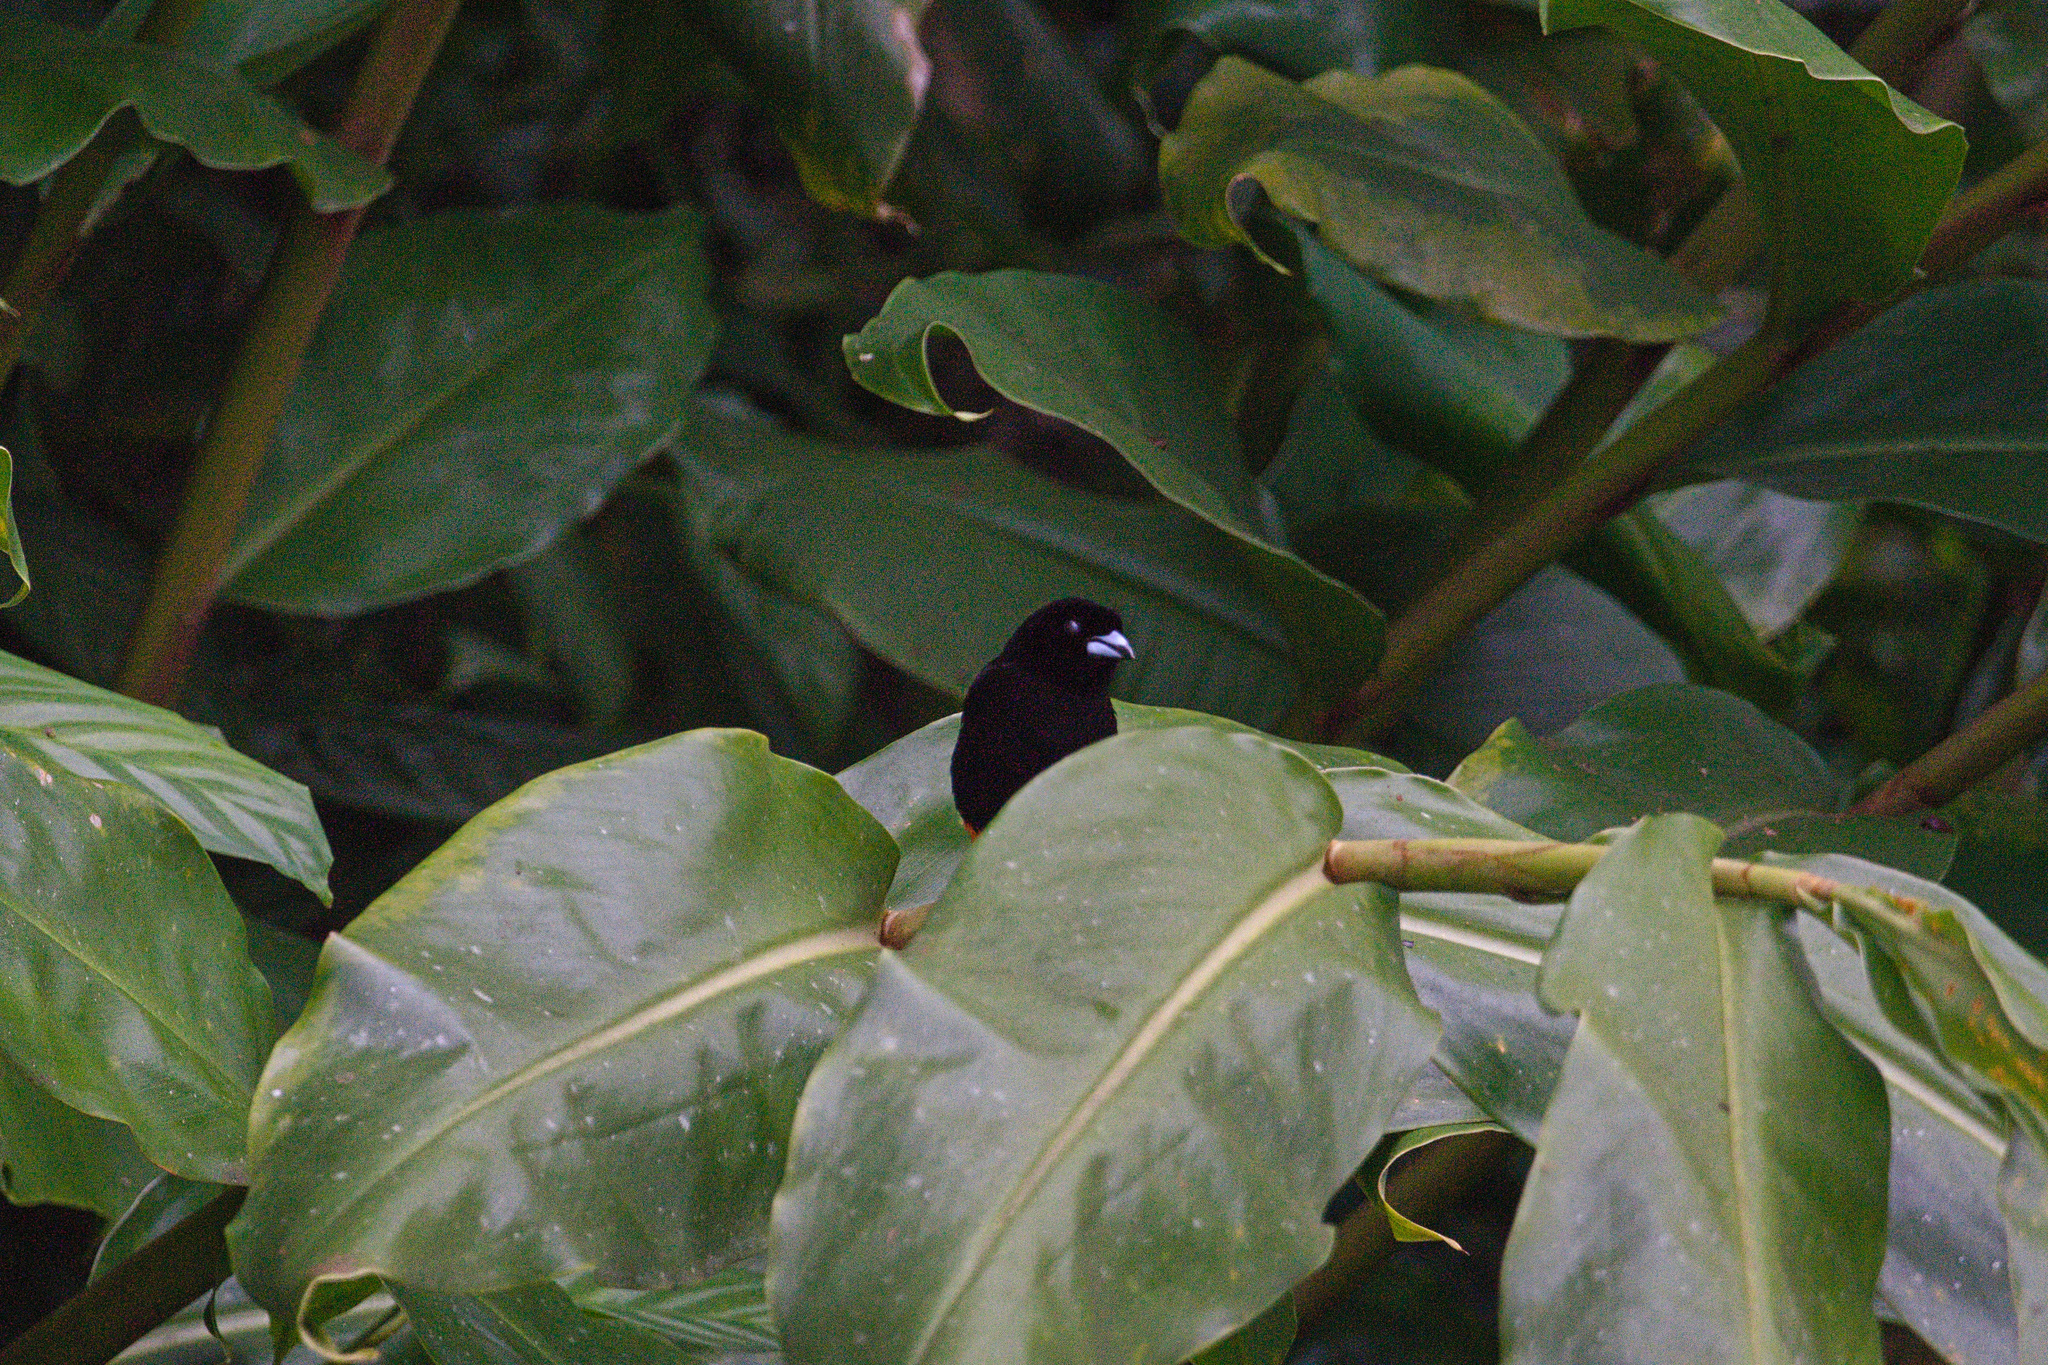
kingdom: Animalia
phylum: Chordata
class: Aves
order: Passeriformes
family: Thraupidae
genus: Ramphocelus
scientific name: Ramphocelus passerinii
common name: Passerini's tanager
